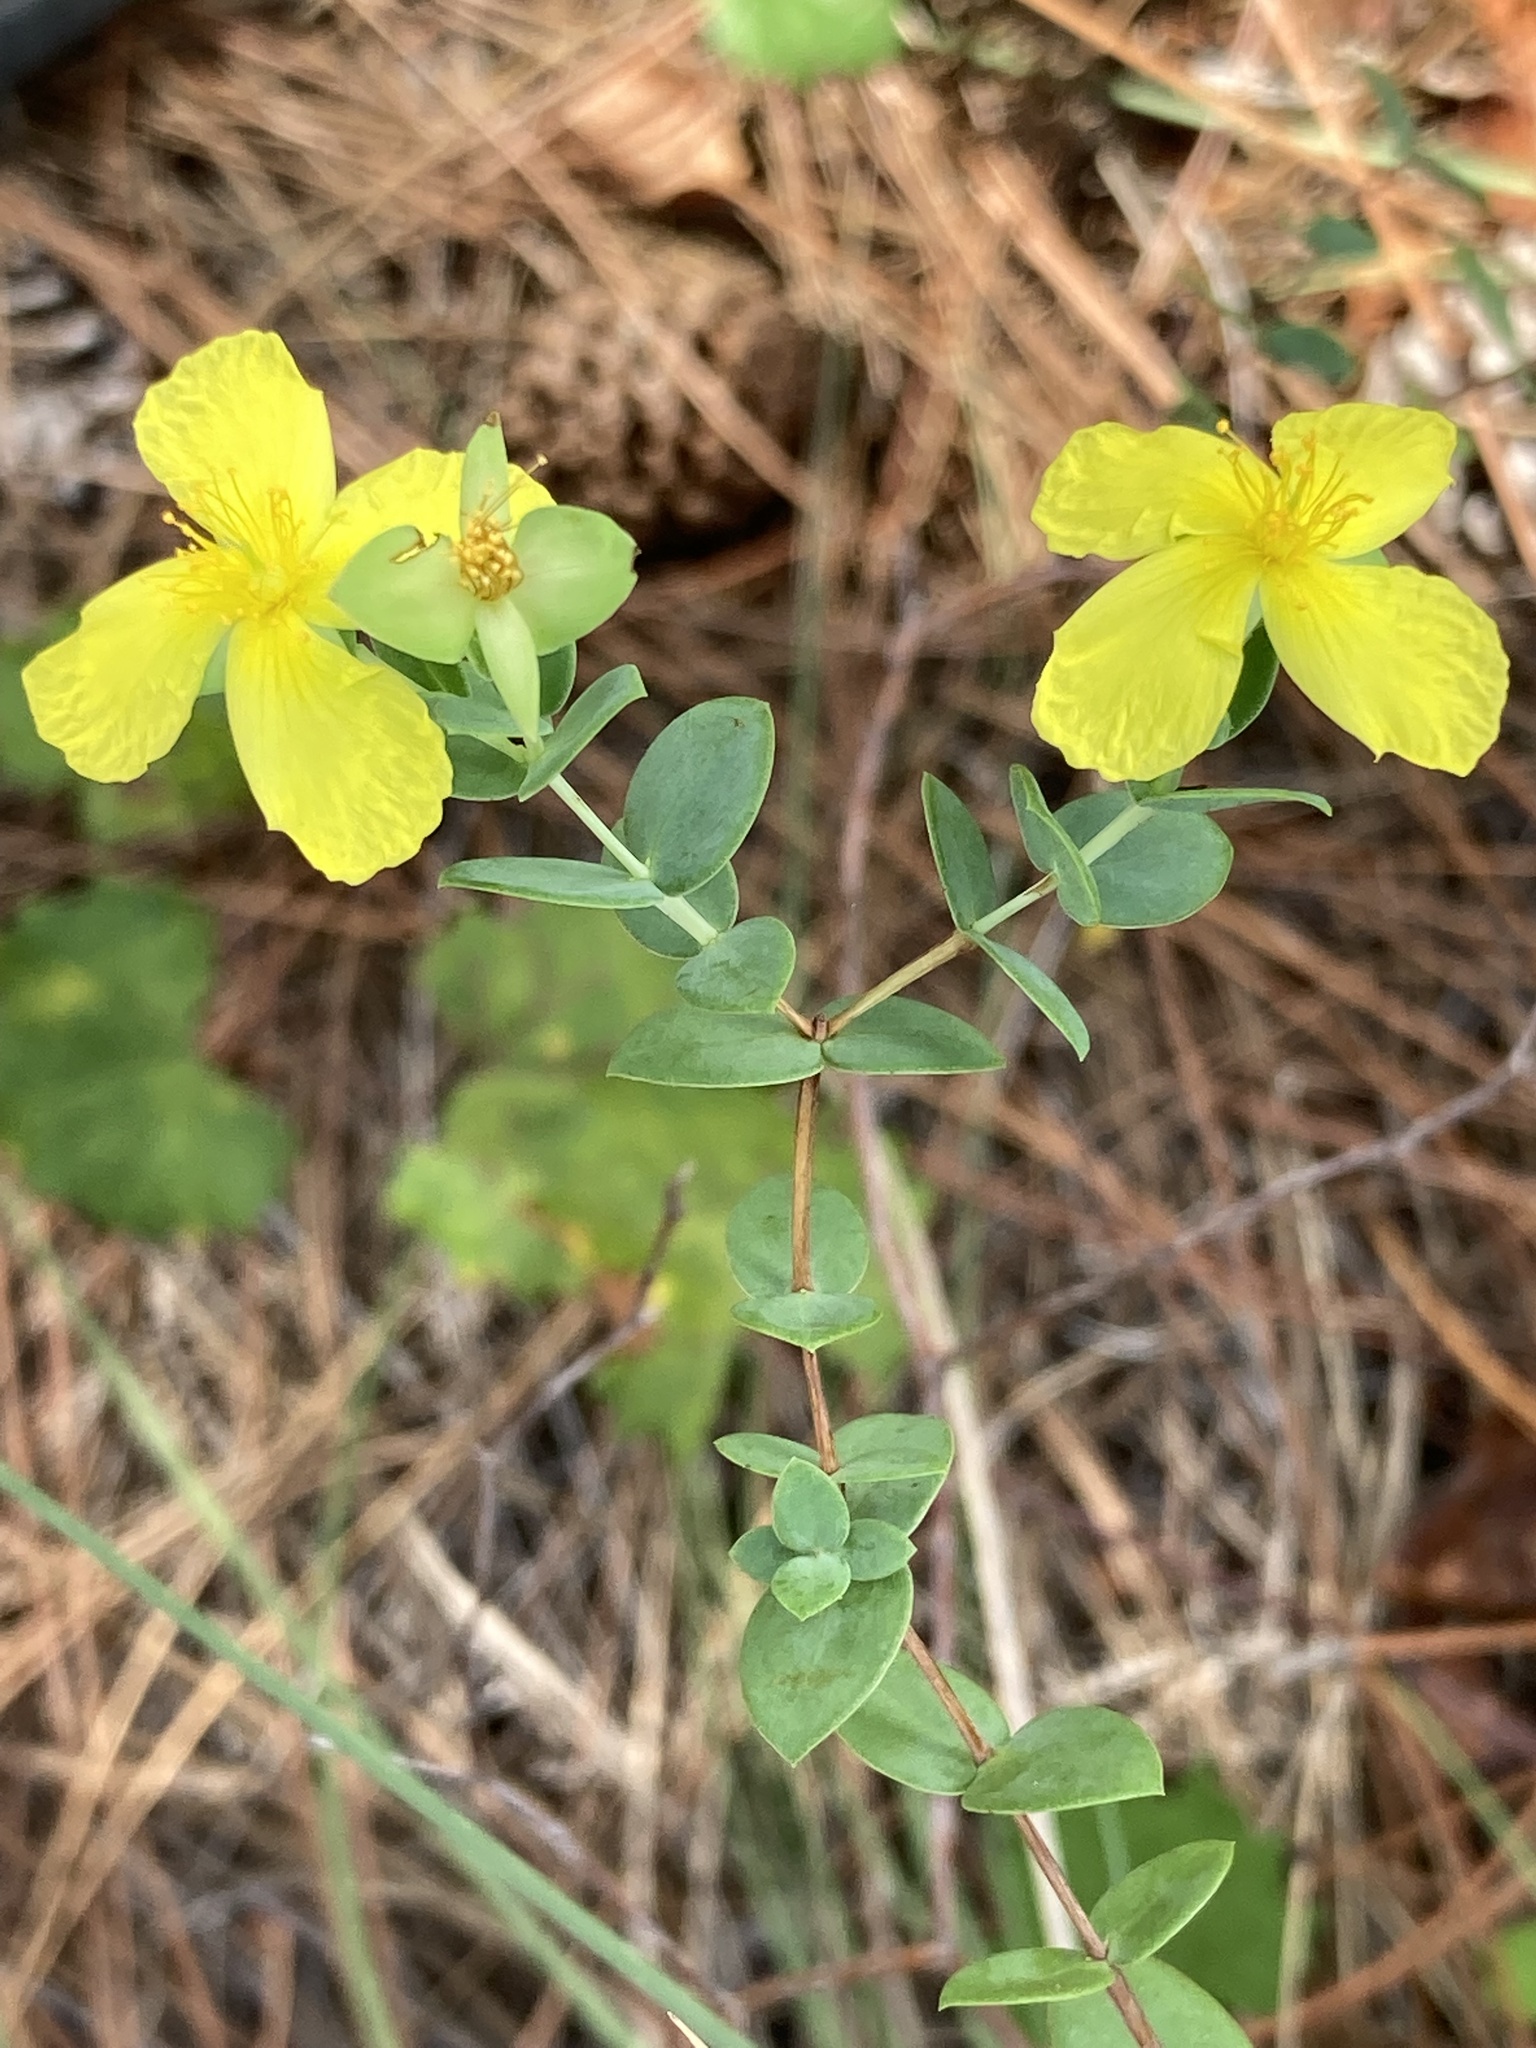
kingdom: Plantae
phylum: Tracheophyta
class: Magnoliopsida
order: Malpighiales
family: Hypericaceae
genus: Hypericum
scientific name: Hypericum tetrapetalum
